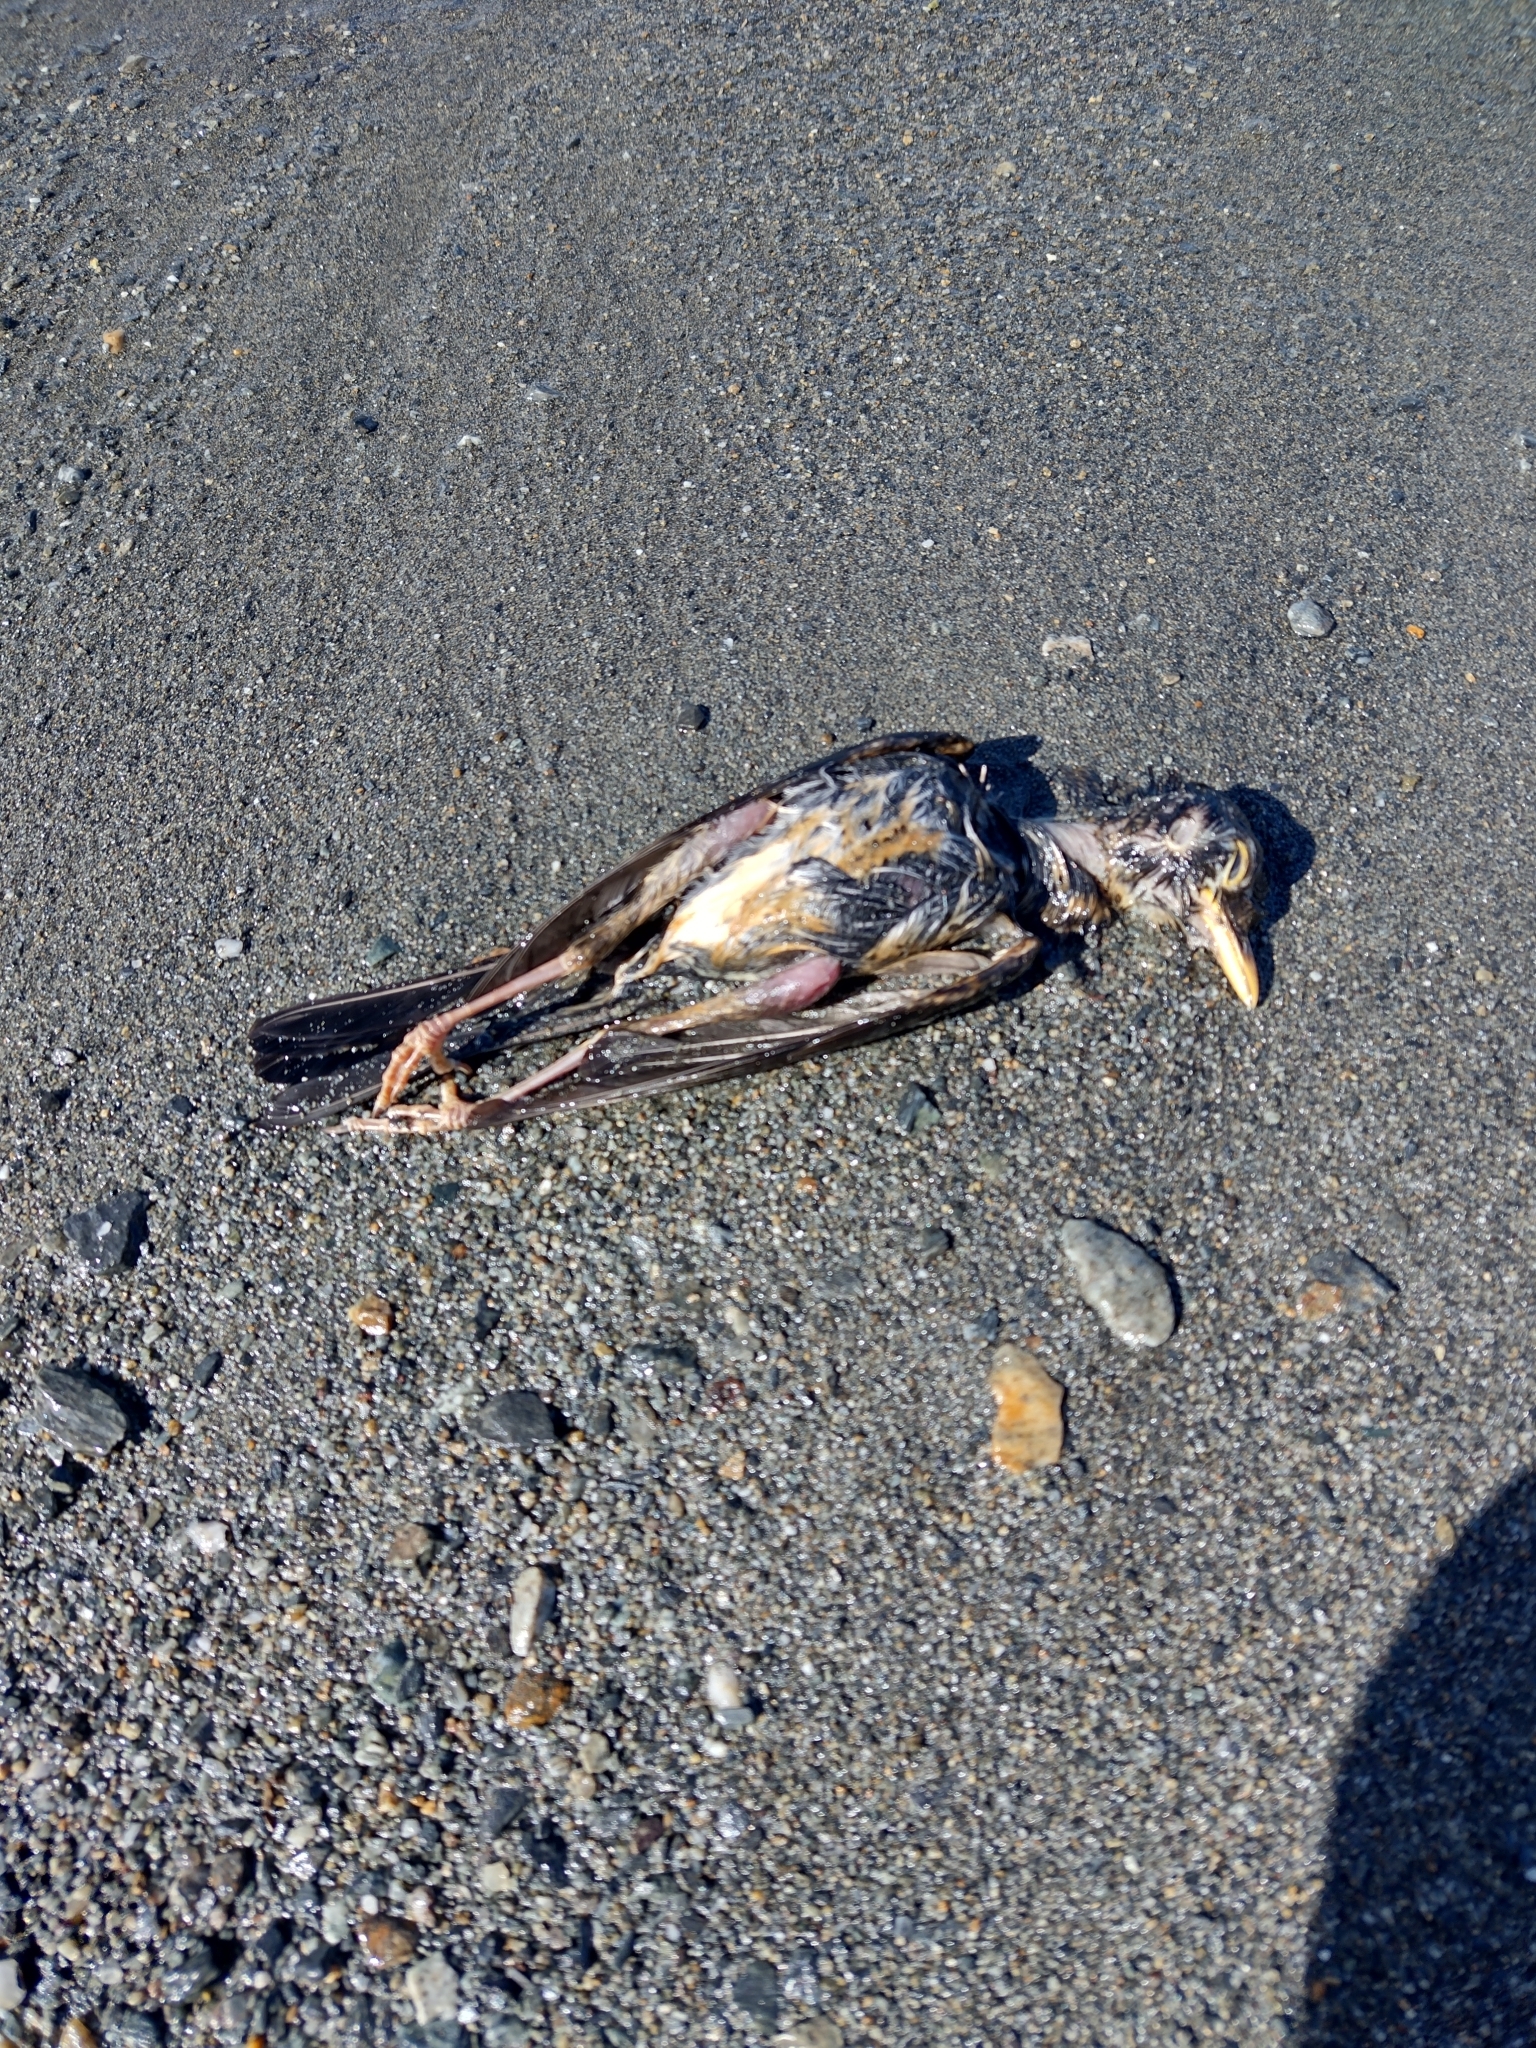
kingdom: Animalia
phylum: Chordata
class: Aves
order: Passeriformes
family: Turdidae
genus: Turdus
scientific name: Turdus falcklandii
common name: Austral thrush
